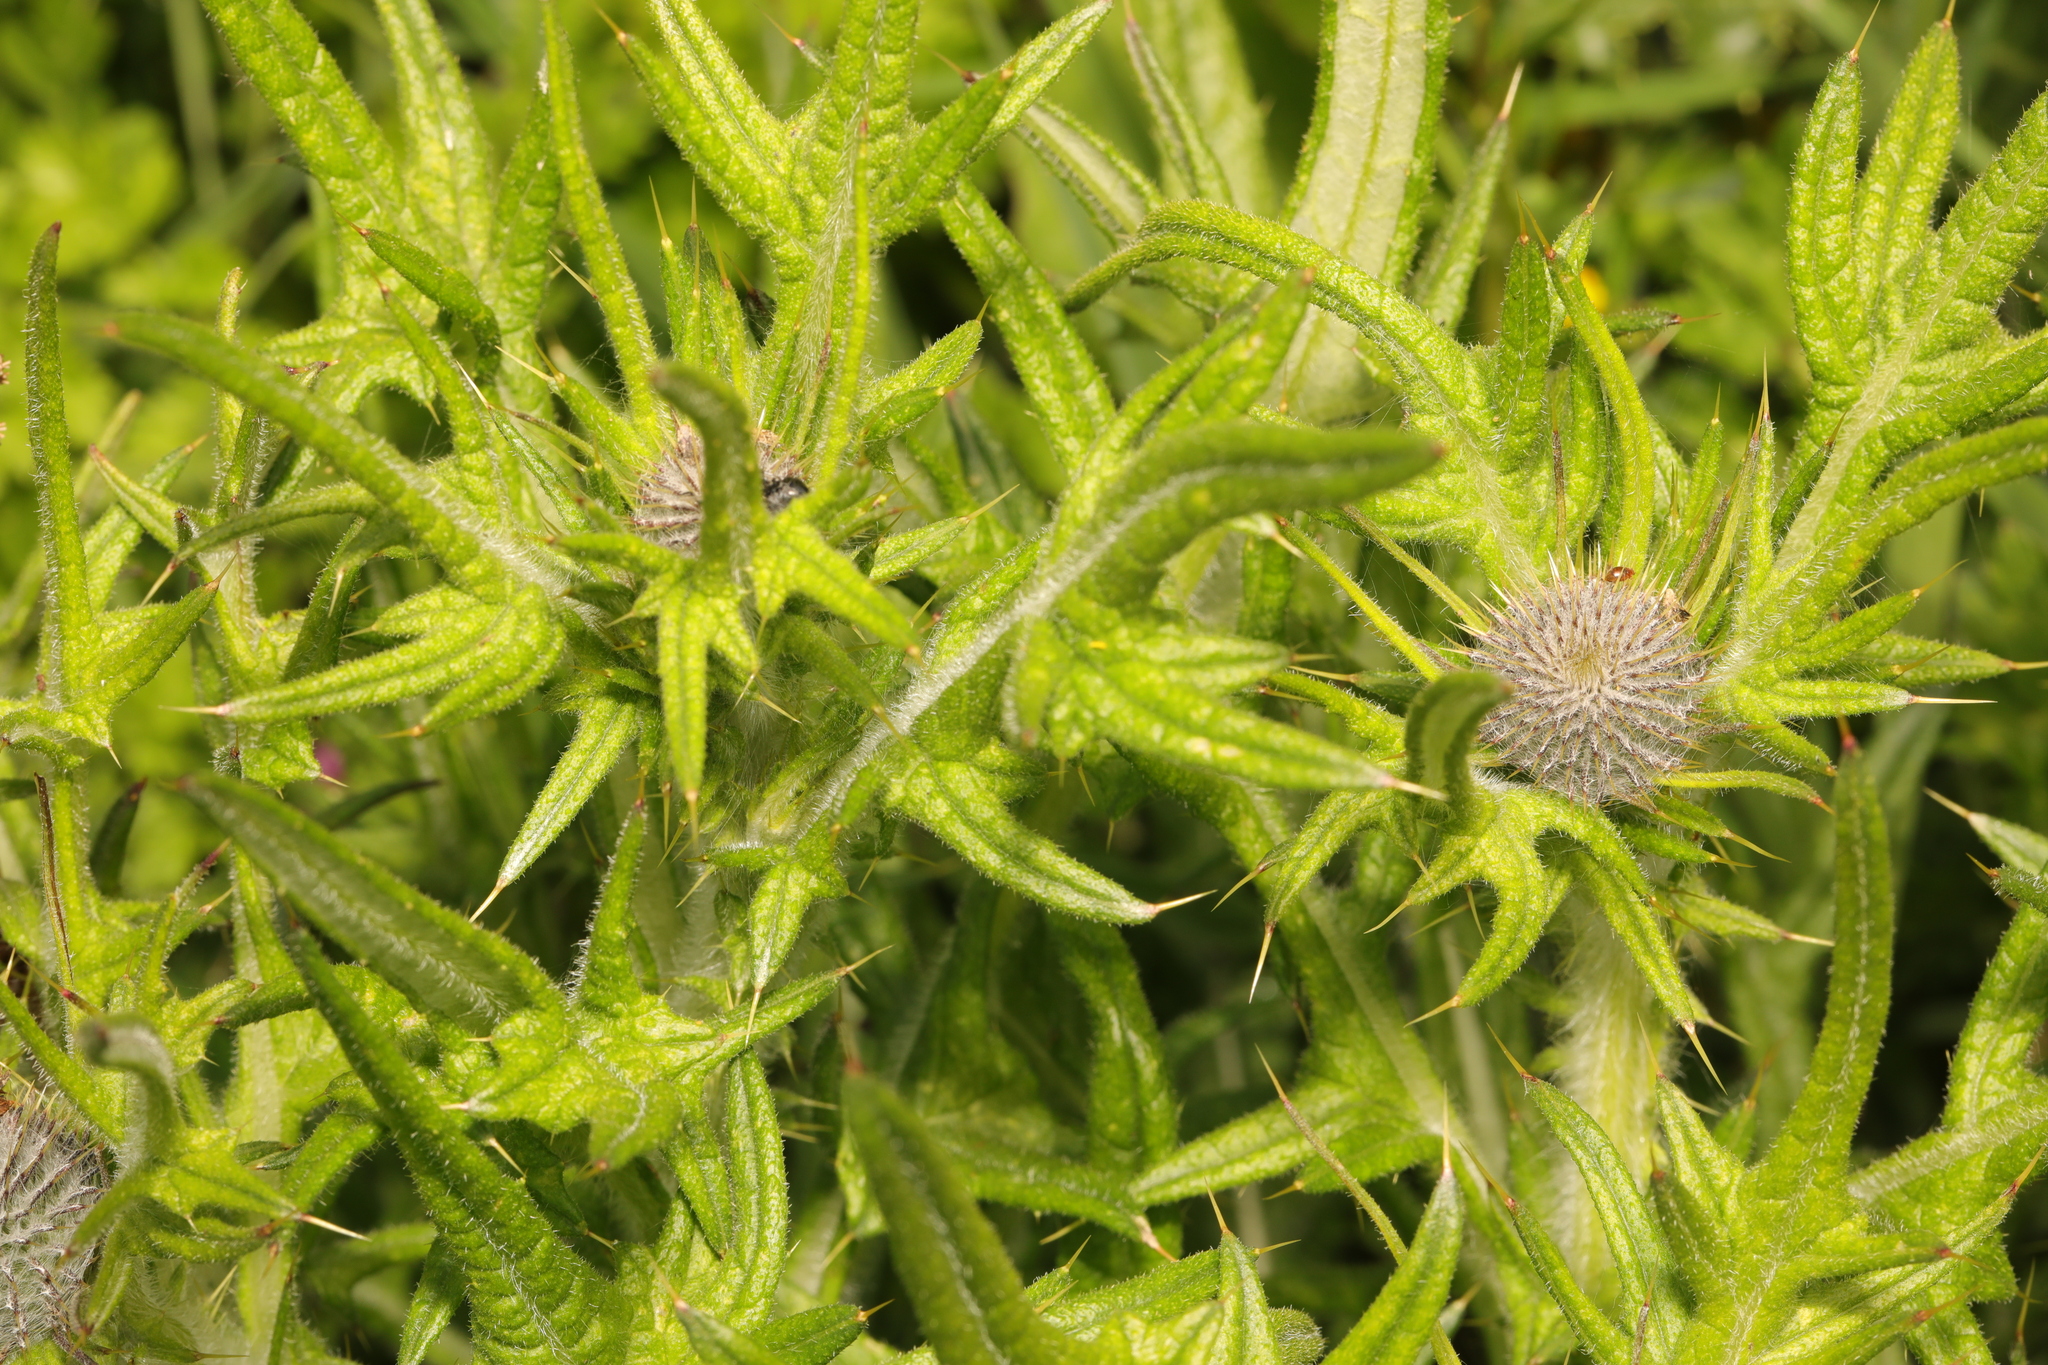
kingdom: Plantae
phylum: Tracheophyta
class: Magnoliopsida
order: Asterales
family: Asteraceae
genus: Cirsium
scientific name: Cirsium vulgare
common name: Bull thistle
